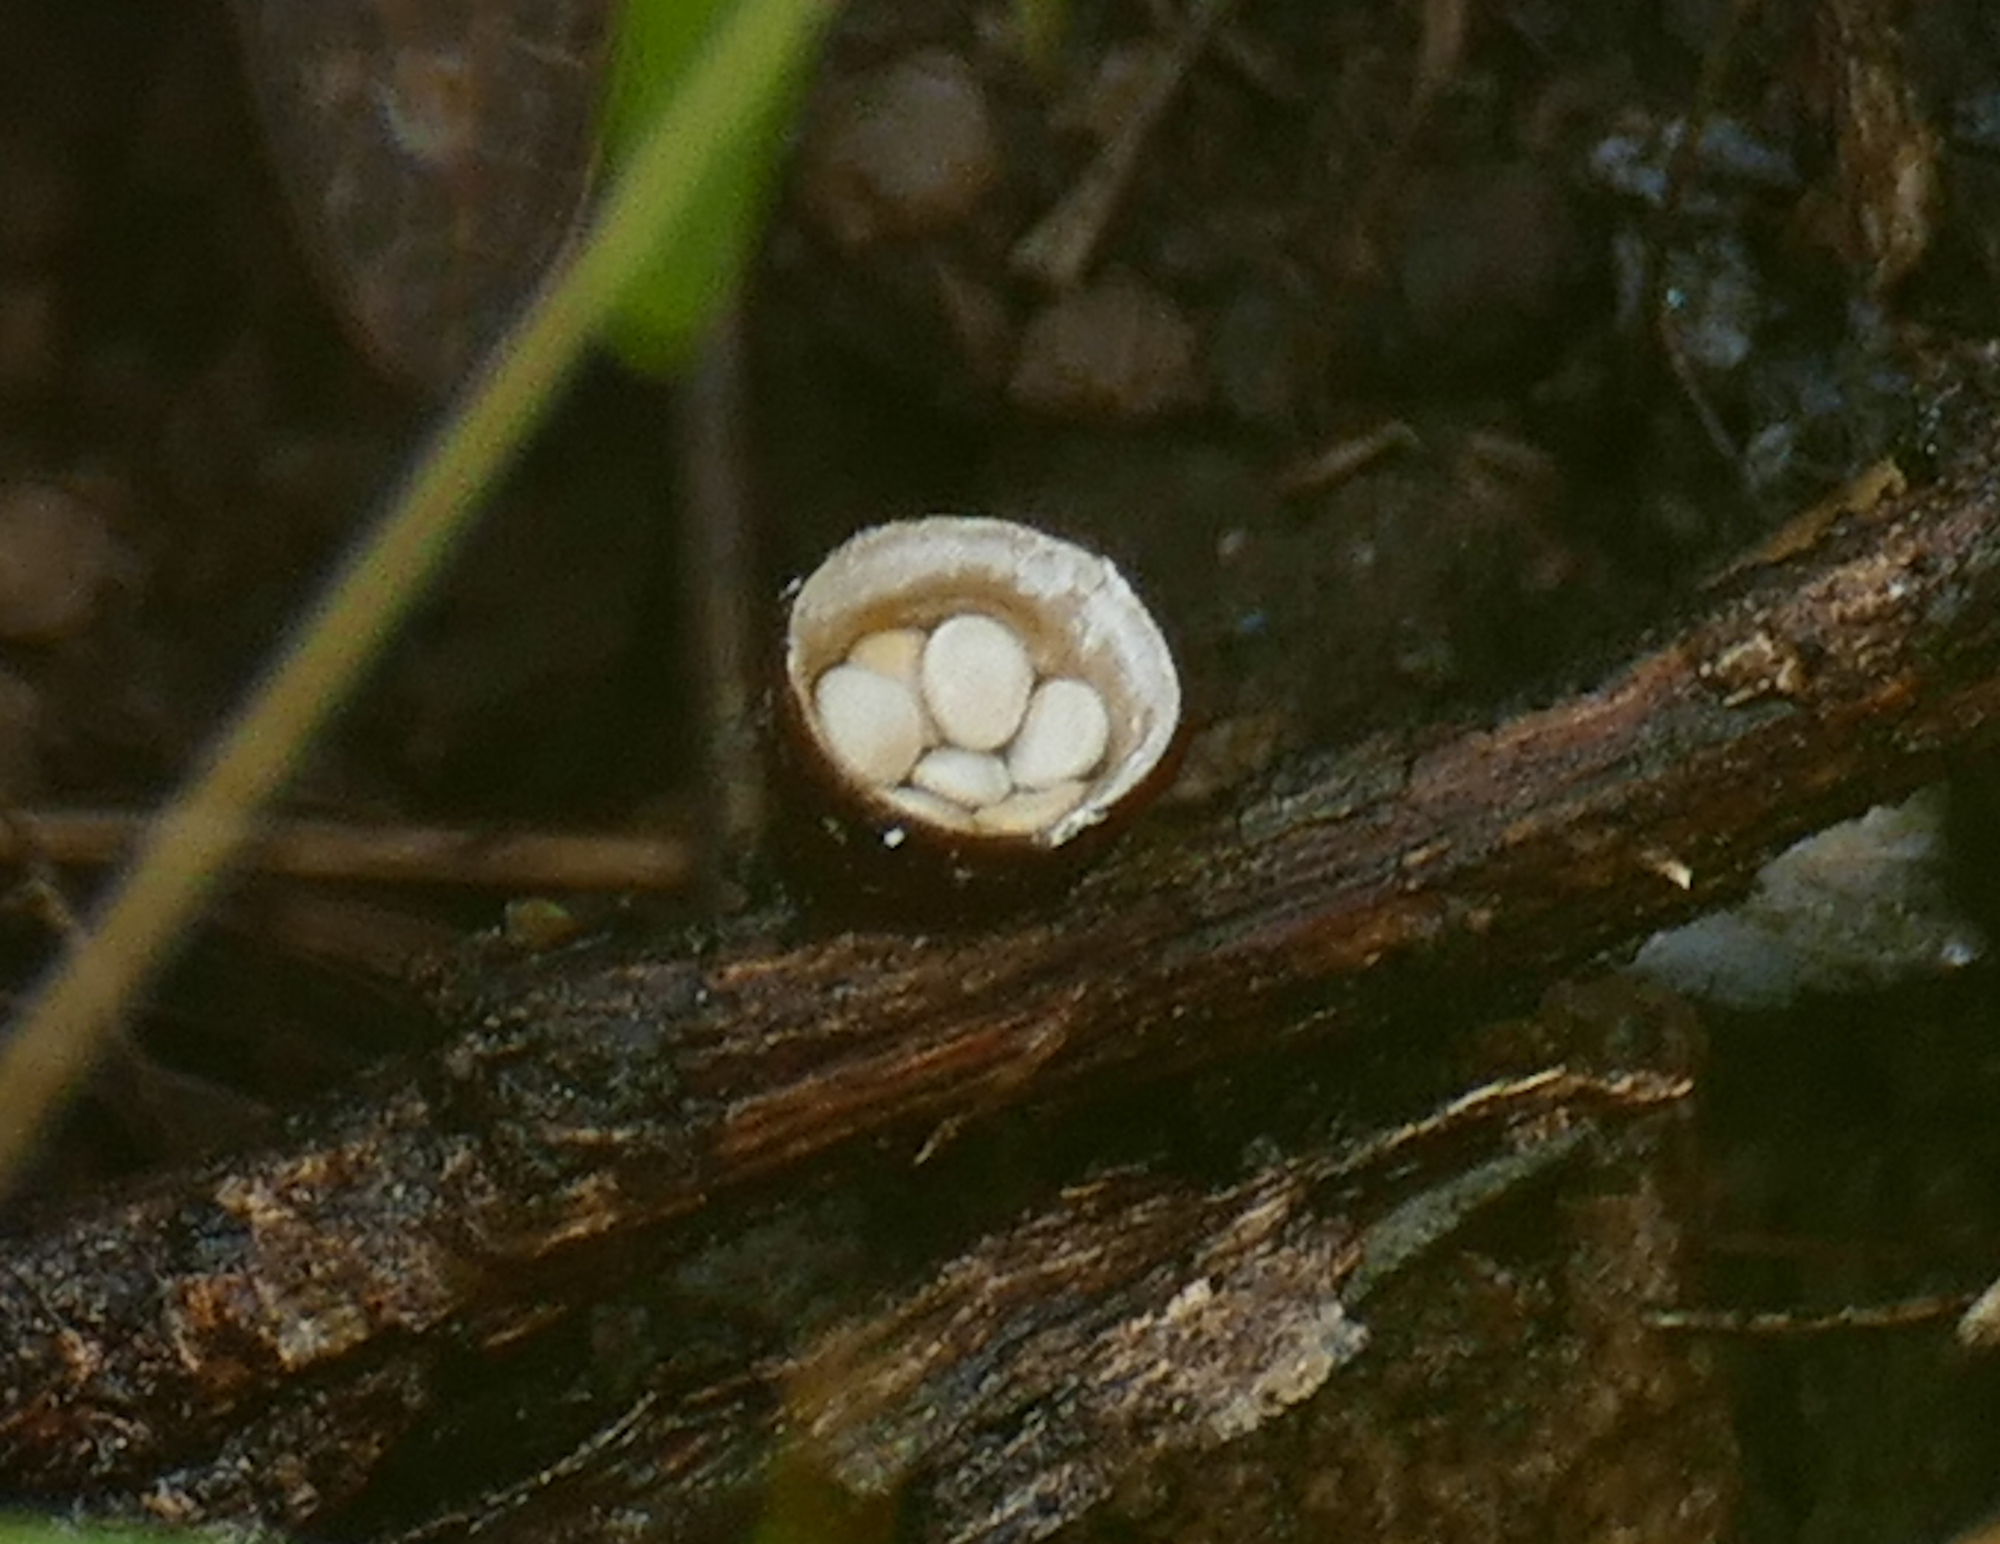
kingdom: Fungi
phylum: Basidiomycota
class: Agaricomycetes
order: Agaricales
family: Nidulariaceae
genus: Crucibulum
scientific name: Crucibulum cyathiforme
